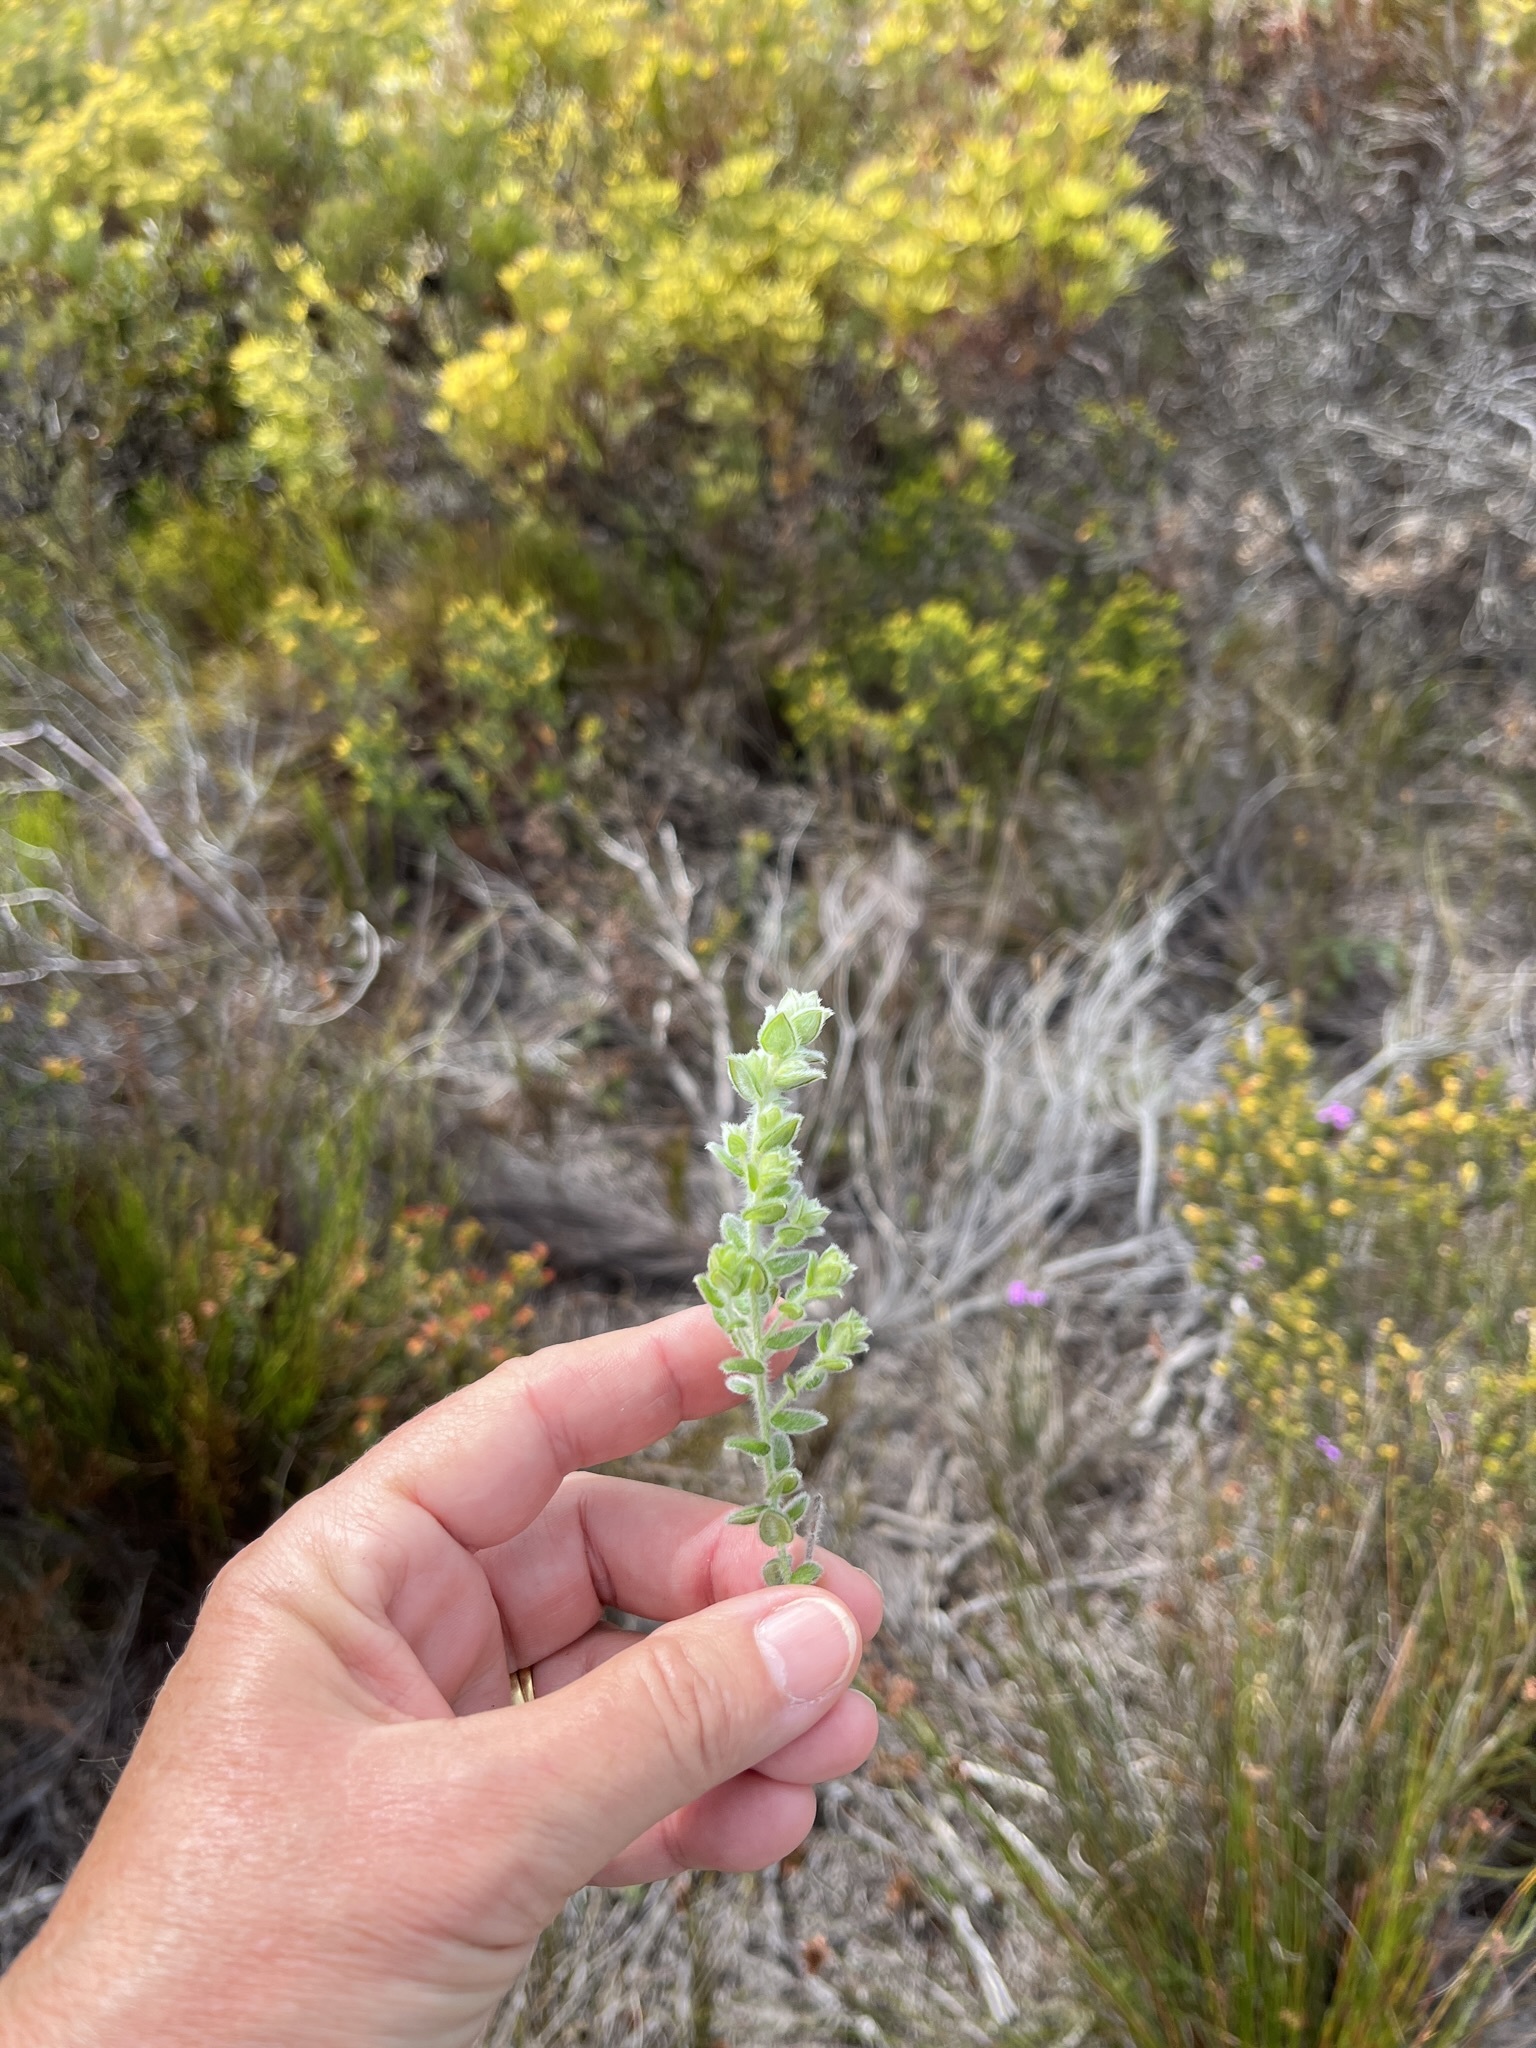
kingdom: Plantae
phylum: Tracheophyta
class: Magnoliopsida
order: Fabales
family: Fabaceae
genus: Amphithalea
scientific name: Amphithalea rostrata
